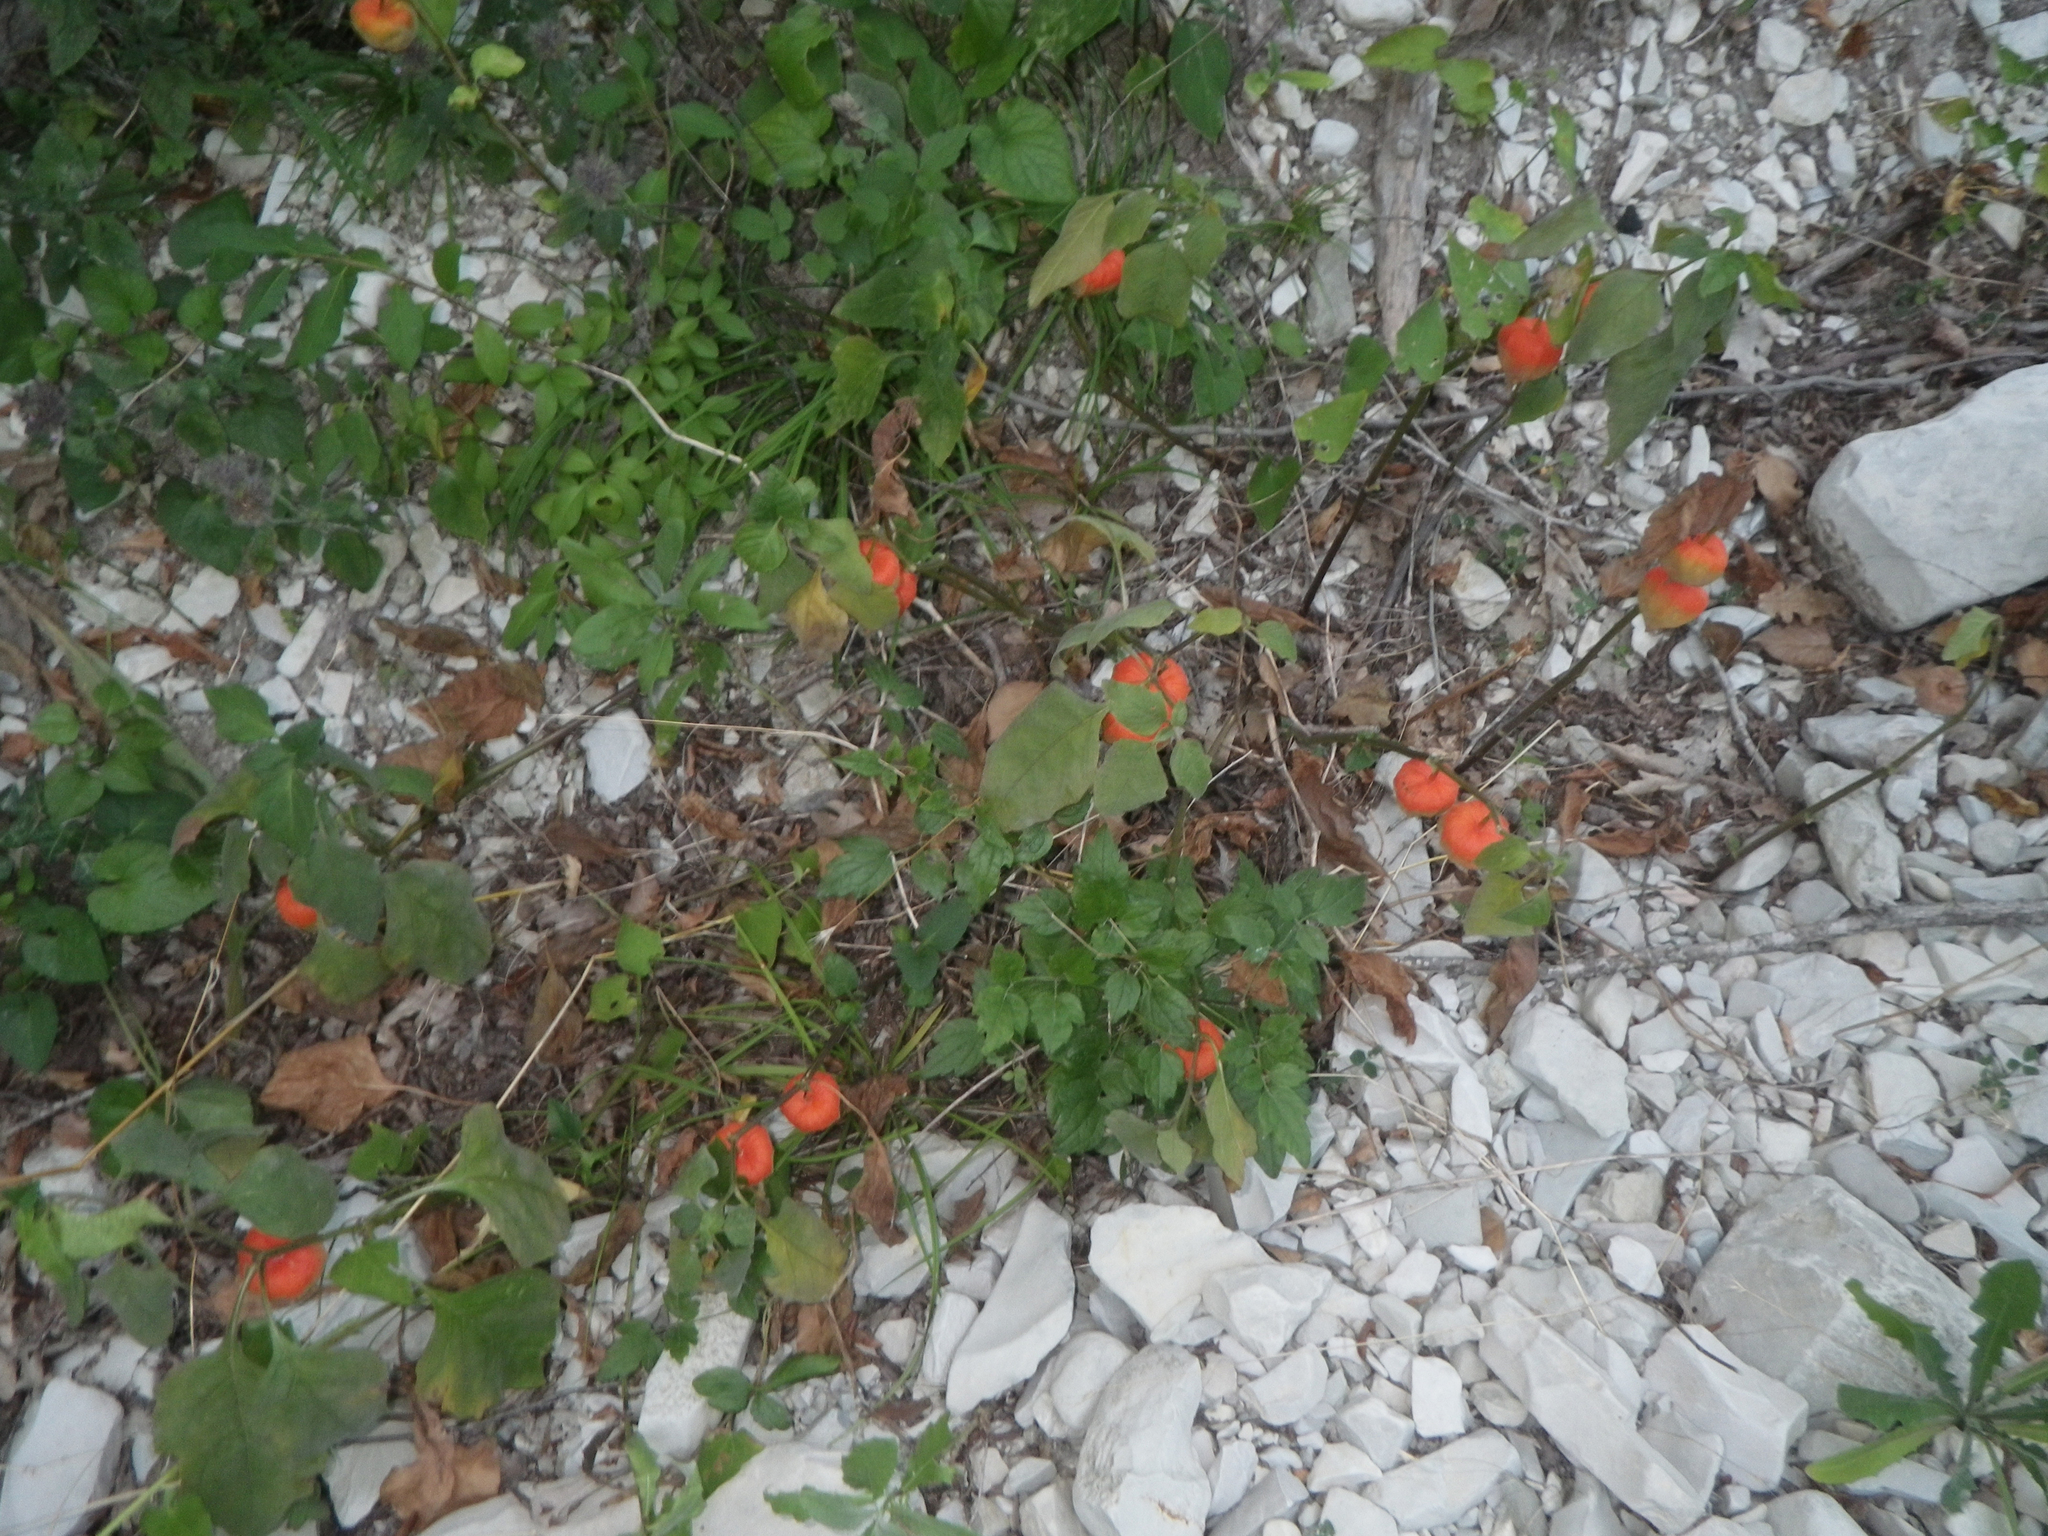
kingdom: Plantae
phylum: Tracheophyta
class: Magnoliopsida
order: Solanales
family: Solanaceae
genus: Alkekengi
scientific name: Alkekengi officinarum
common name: Japanese-lantern
